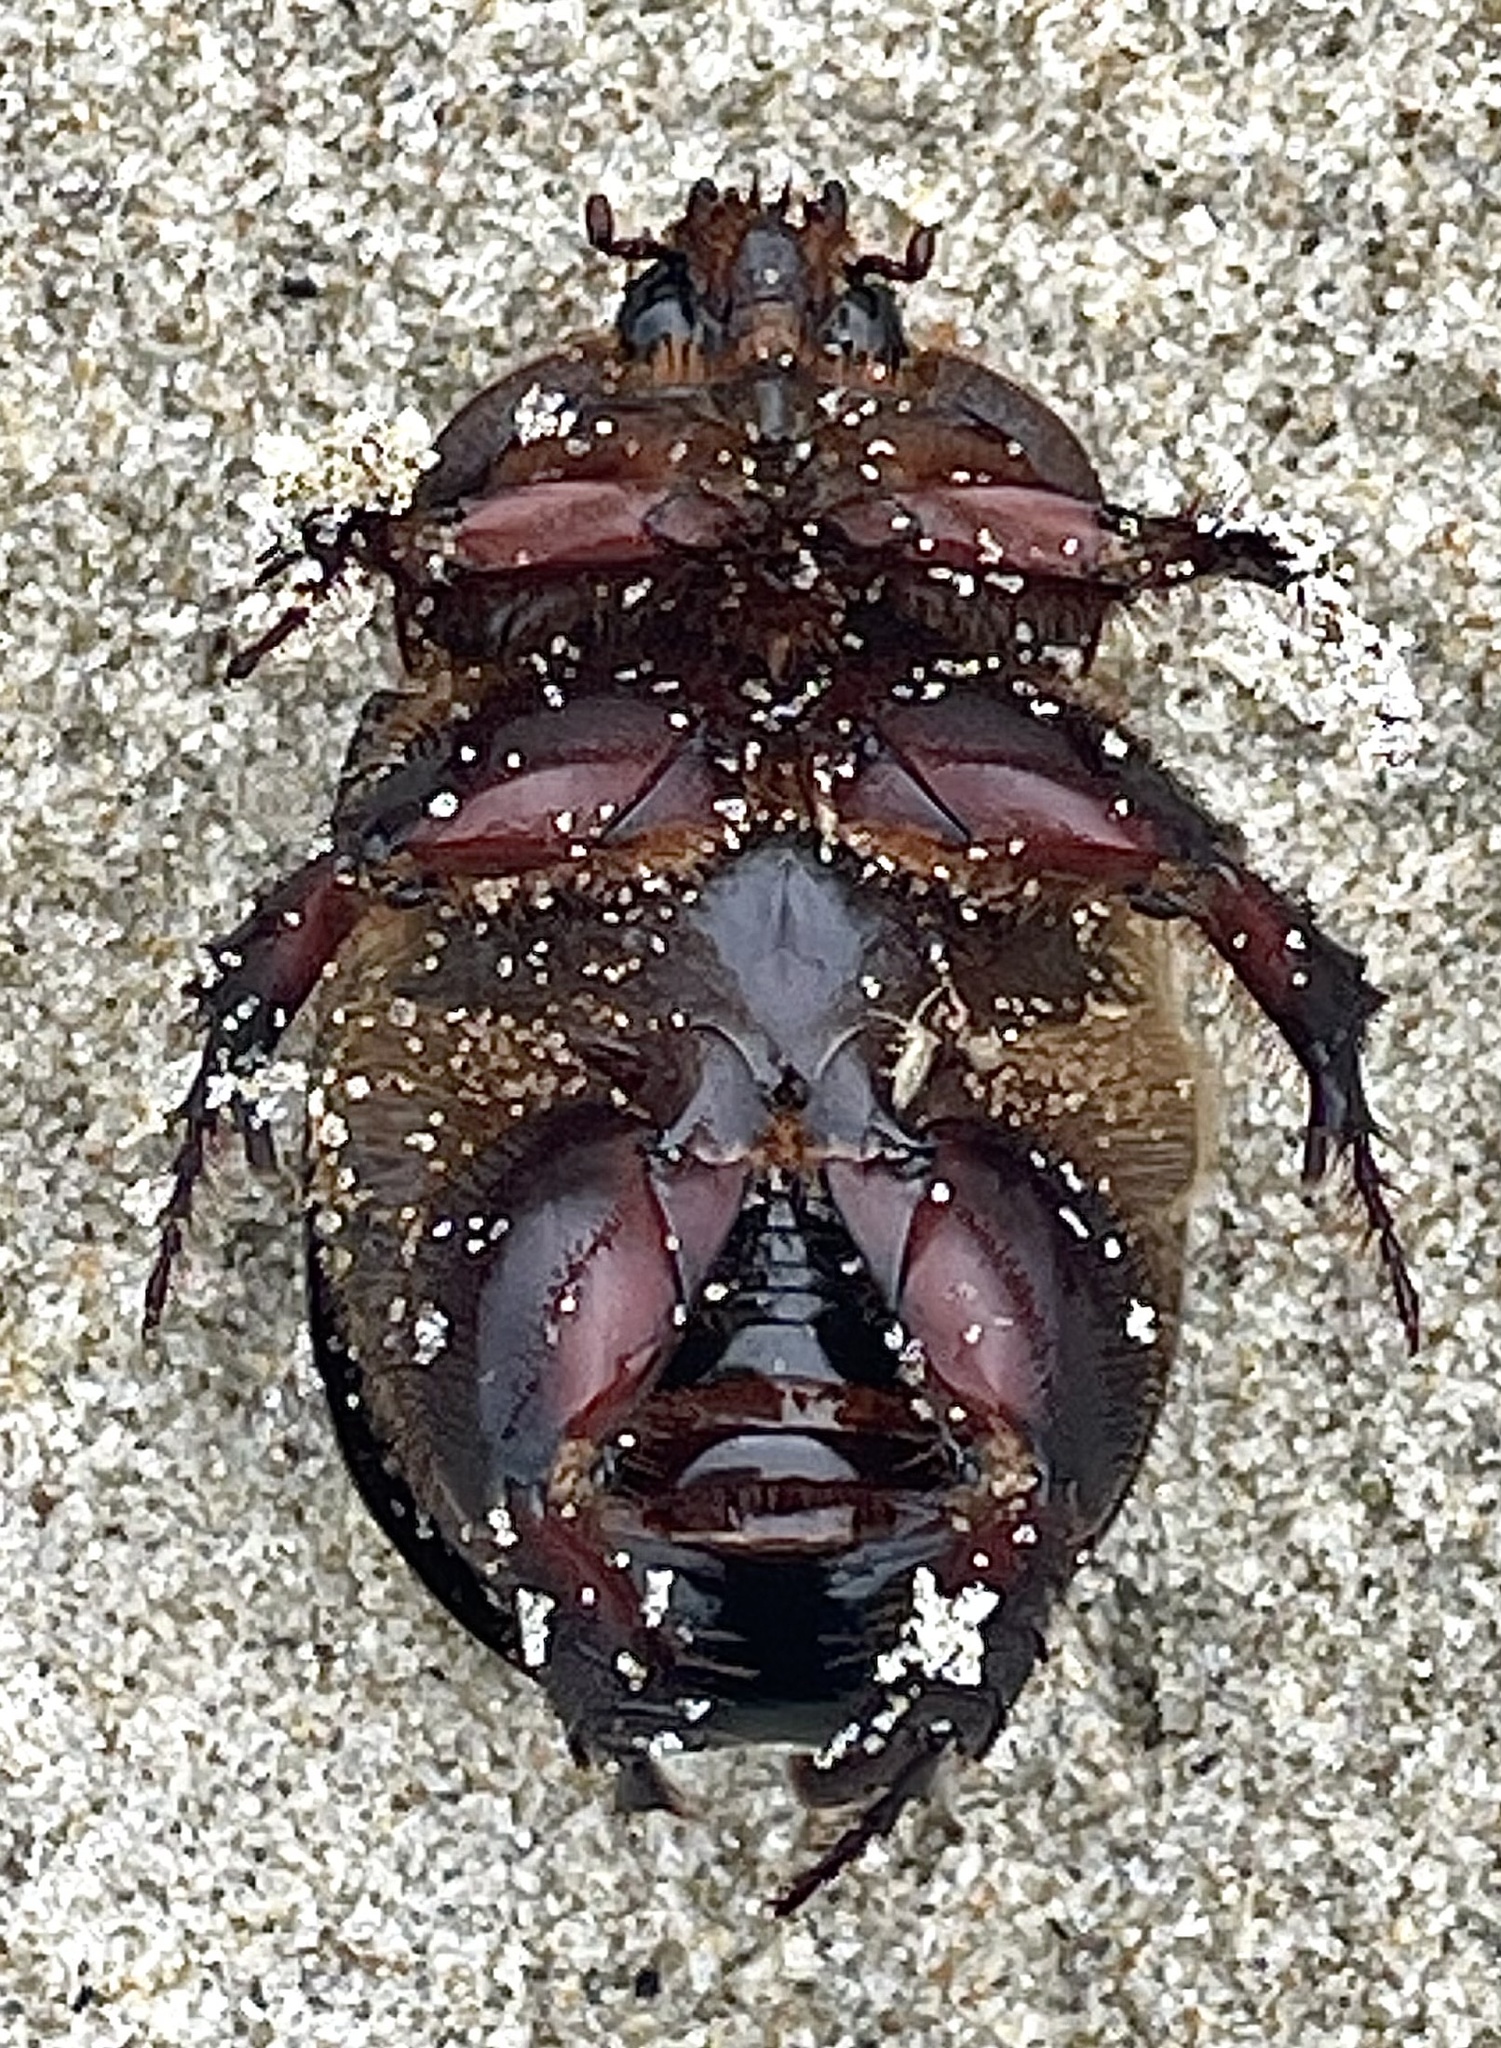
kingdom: Animalia
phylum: Arthropoda
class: Insecta
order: Coleoptera
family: Scarabaeidae
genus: Pericoptus
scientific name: Pericoptus truncatus
